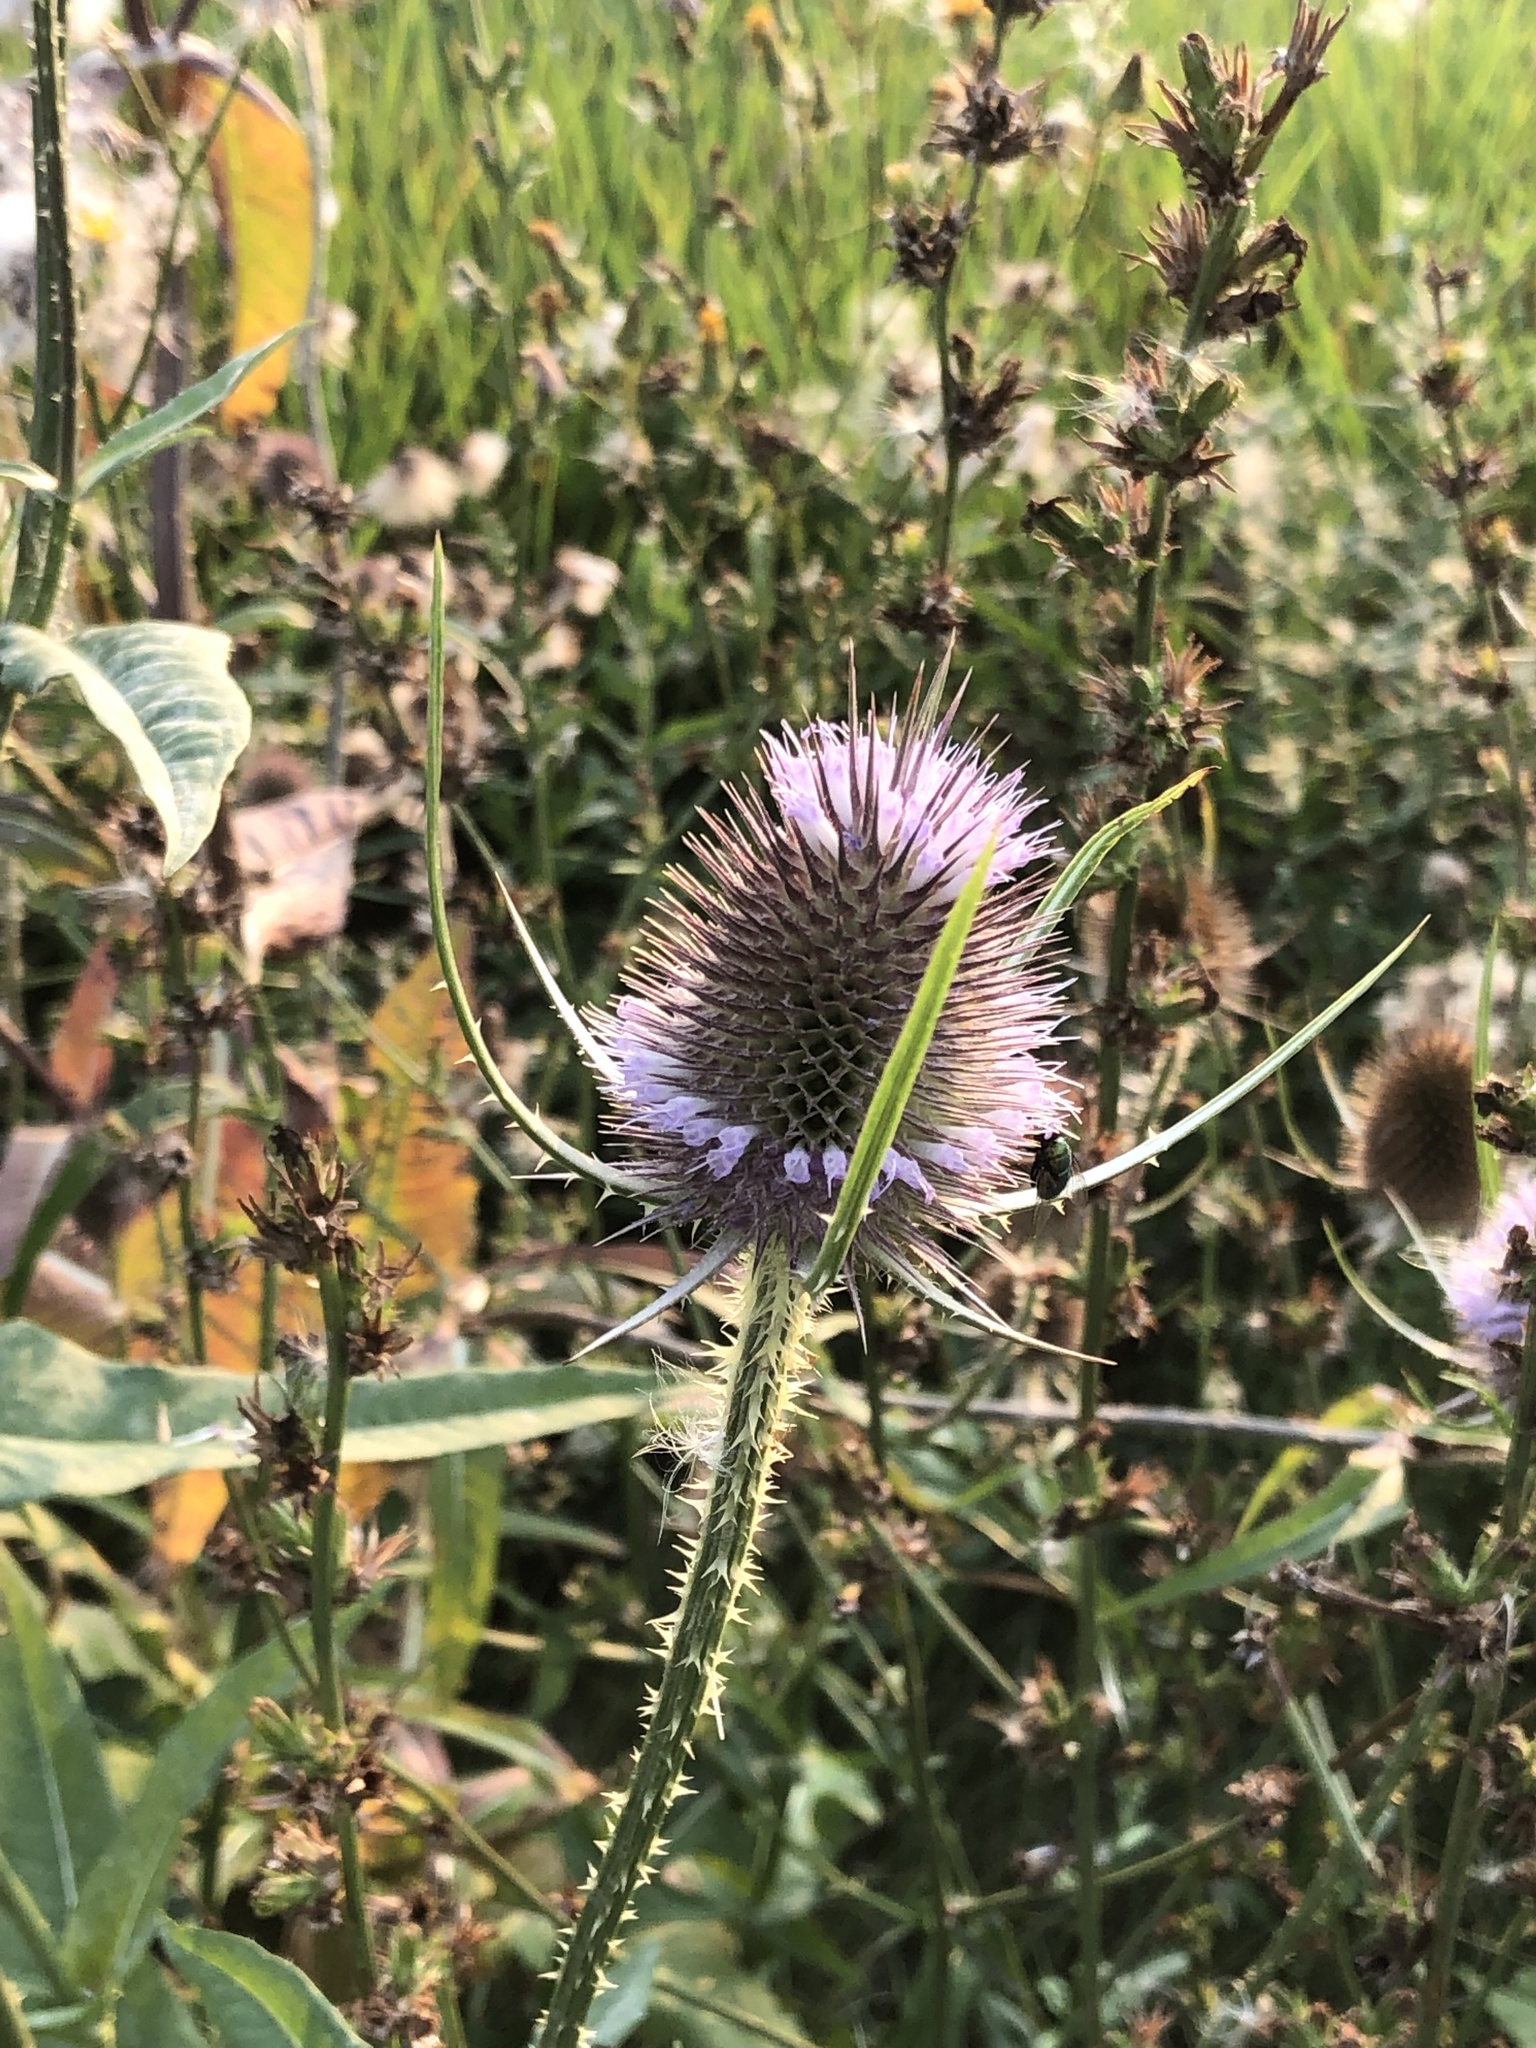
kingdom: Plantae
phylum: Tracheophyta
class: Magnoliopsida
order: Dipsacales
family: Caprifoliaceae
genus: Dipsacus
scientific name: Dipsacus fullonum
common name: Teasel
